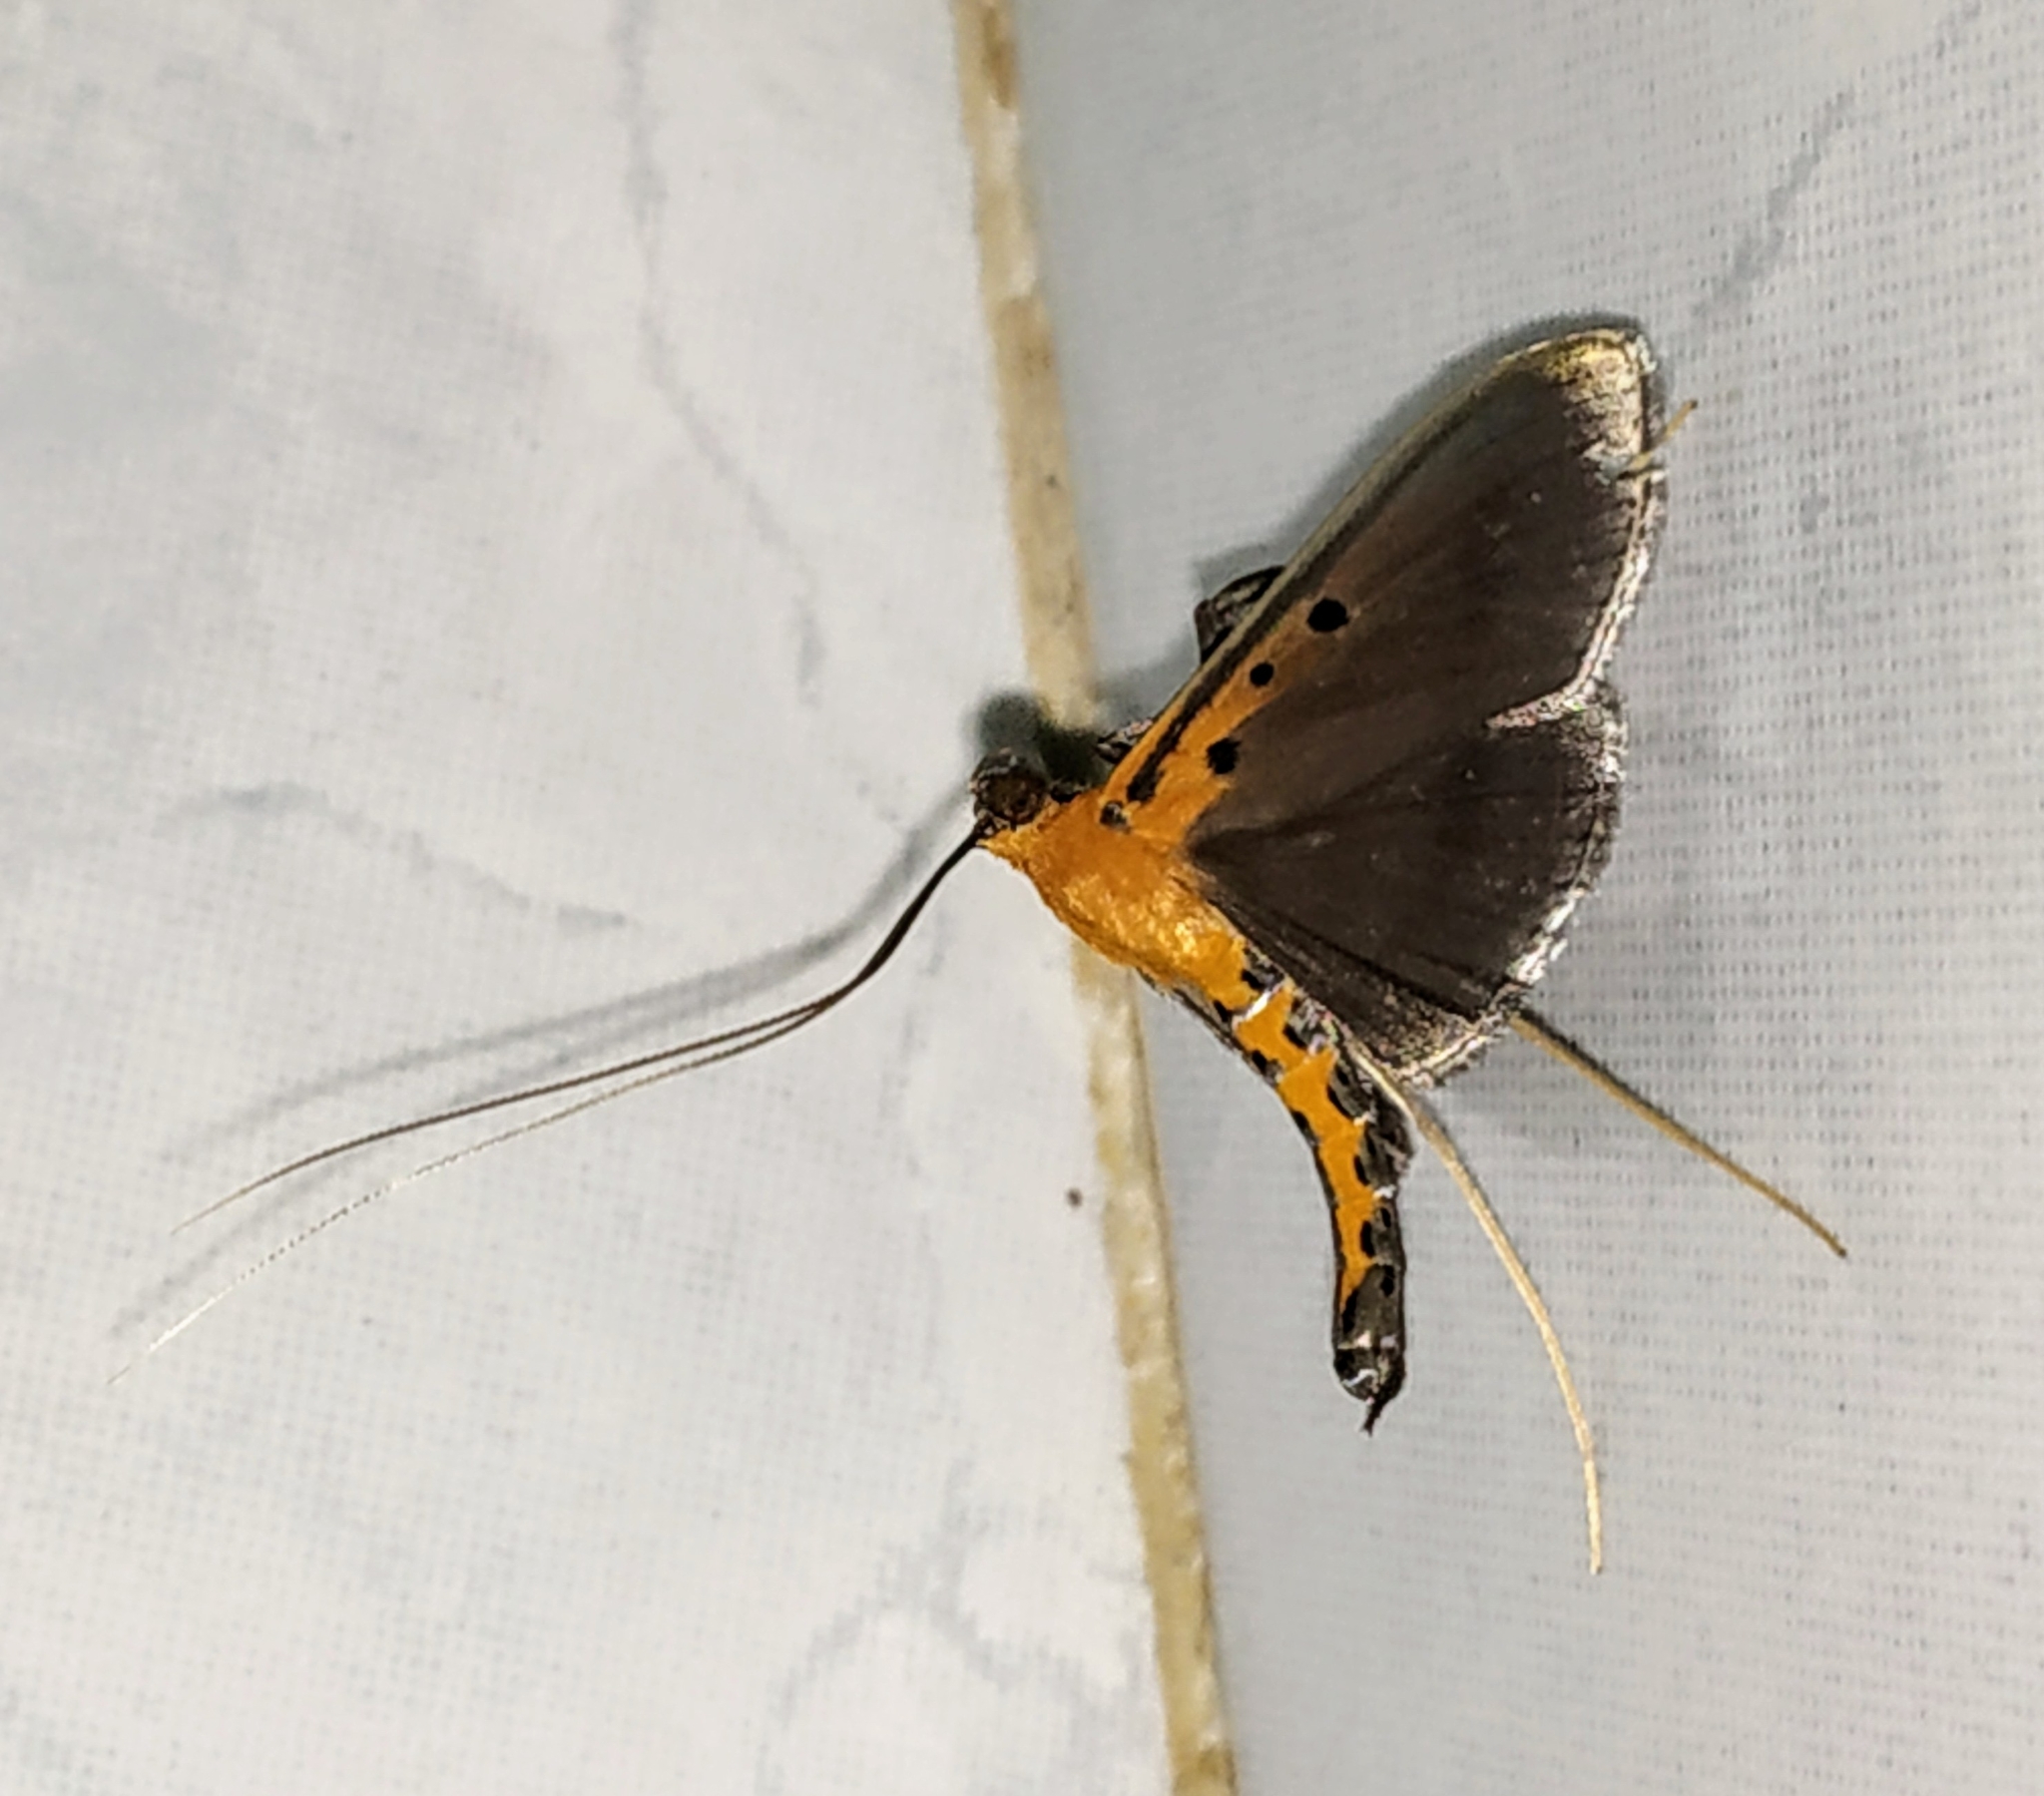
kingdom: Animalia
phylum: Arthropoda
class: Insecta
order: Lepidoptera
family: Crambidae
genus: Filodes
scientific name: Filodes fulvidorsalis
